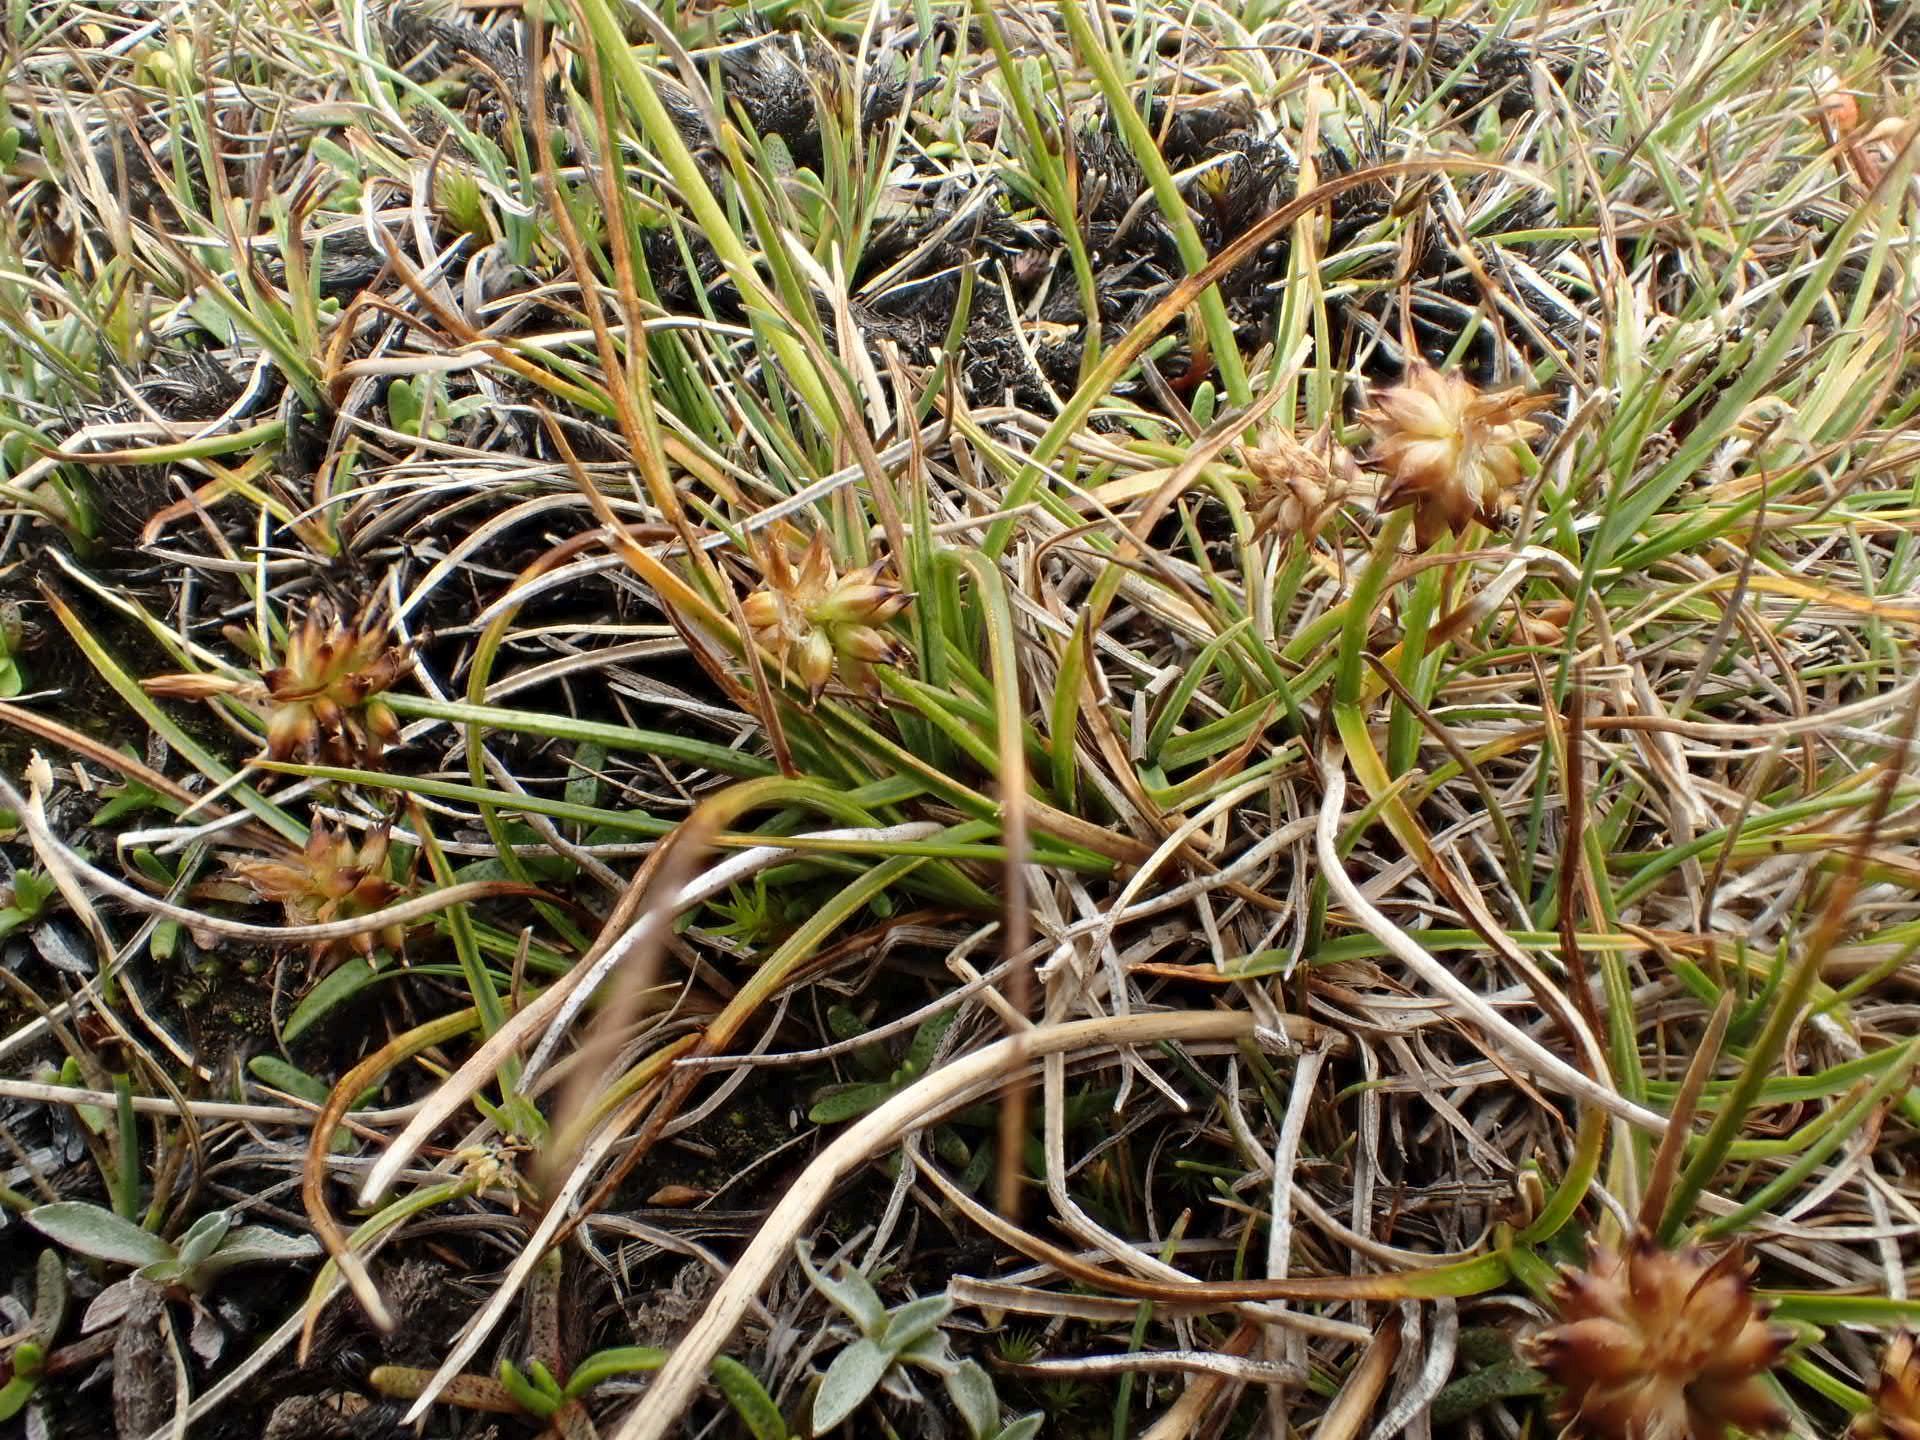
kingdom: Plantae
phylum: Tracheophyta
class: Liliopsida
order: Poales
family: Cyperaceae
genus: Carex
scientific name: Carex pyrenaica
